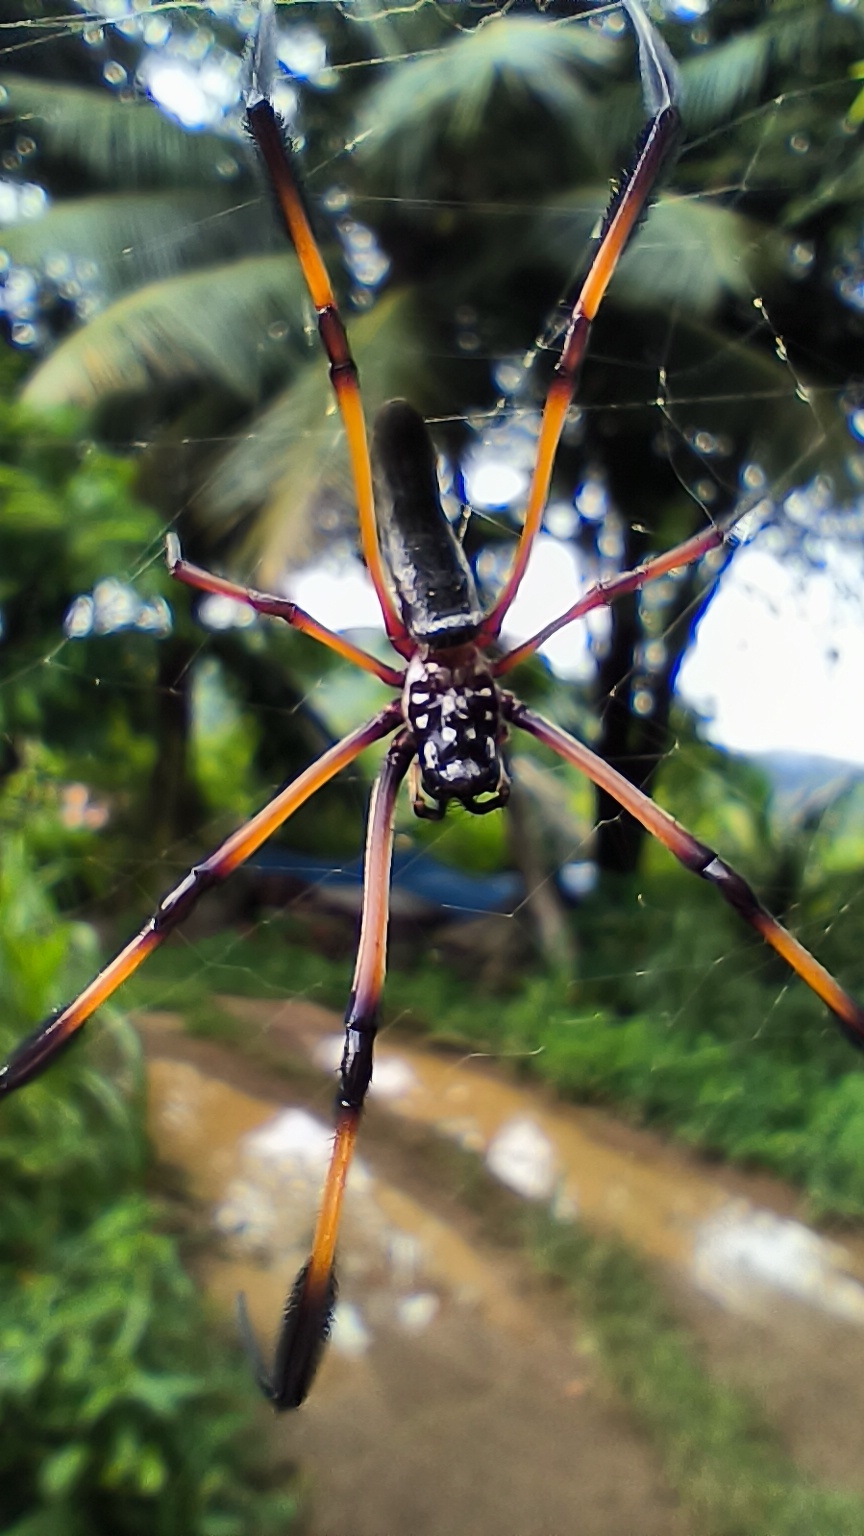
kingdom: Animalia
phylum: Arthropoda
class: Arachnida
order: Araneae
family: Araneidae
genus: Trichonephila
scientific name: Trichonephila inaurata
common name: Red-legged golden orb weaver
